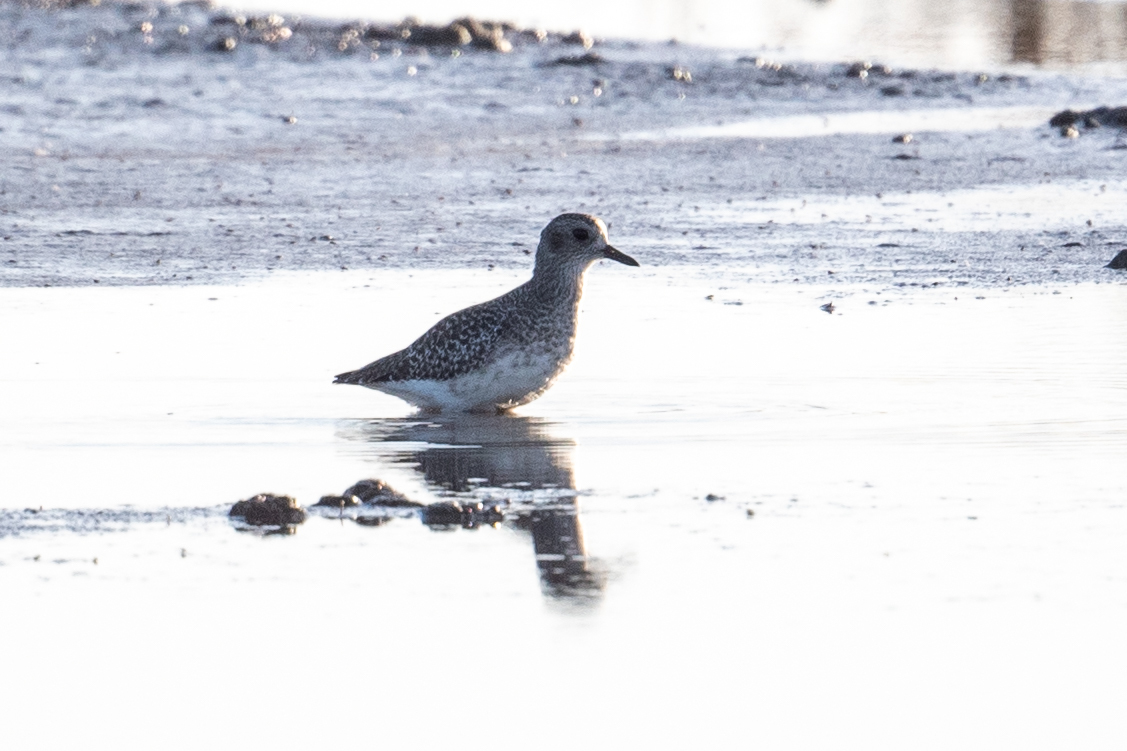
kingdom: Animalia
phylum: Chordata
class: Aves
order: Charadriiformes
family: Charadriidae
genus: Pluvialis
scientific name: Pluvialis squatarola
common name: Grey plover
